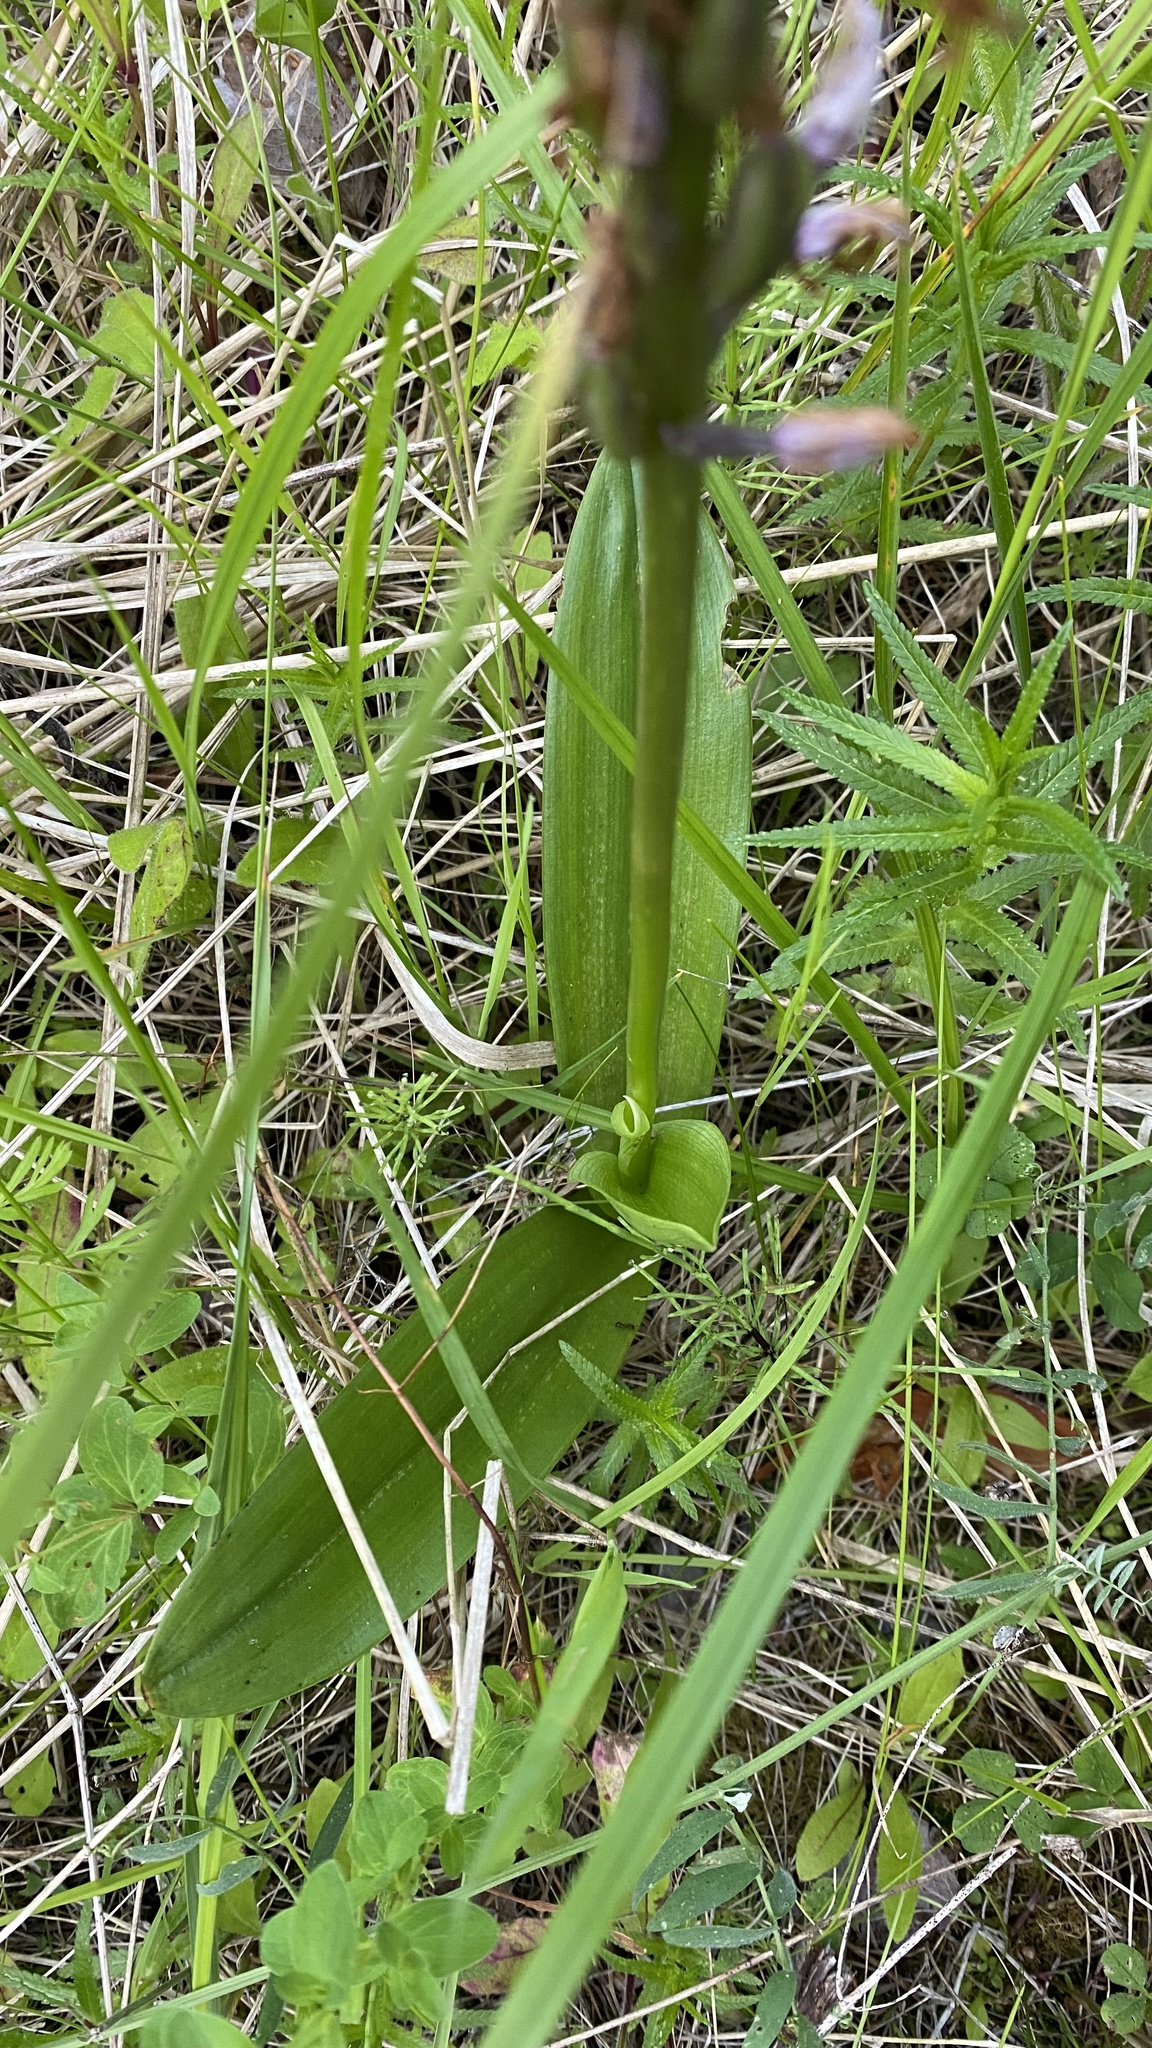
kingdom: Plantae
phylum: Tracheophyta
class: Liliopsida
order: Asparagales
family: Orchidaceae
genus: Orchis
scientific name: Orchis militaris
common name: Military orchid
